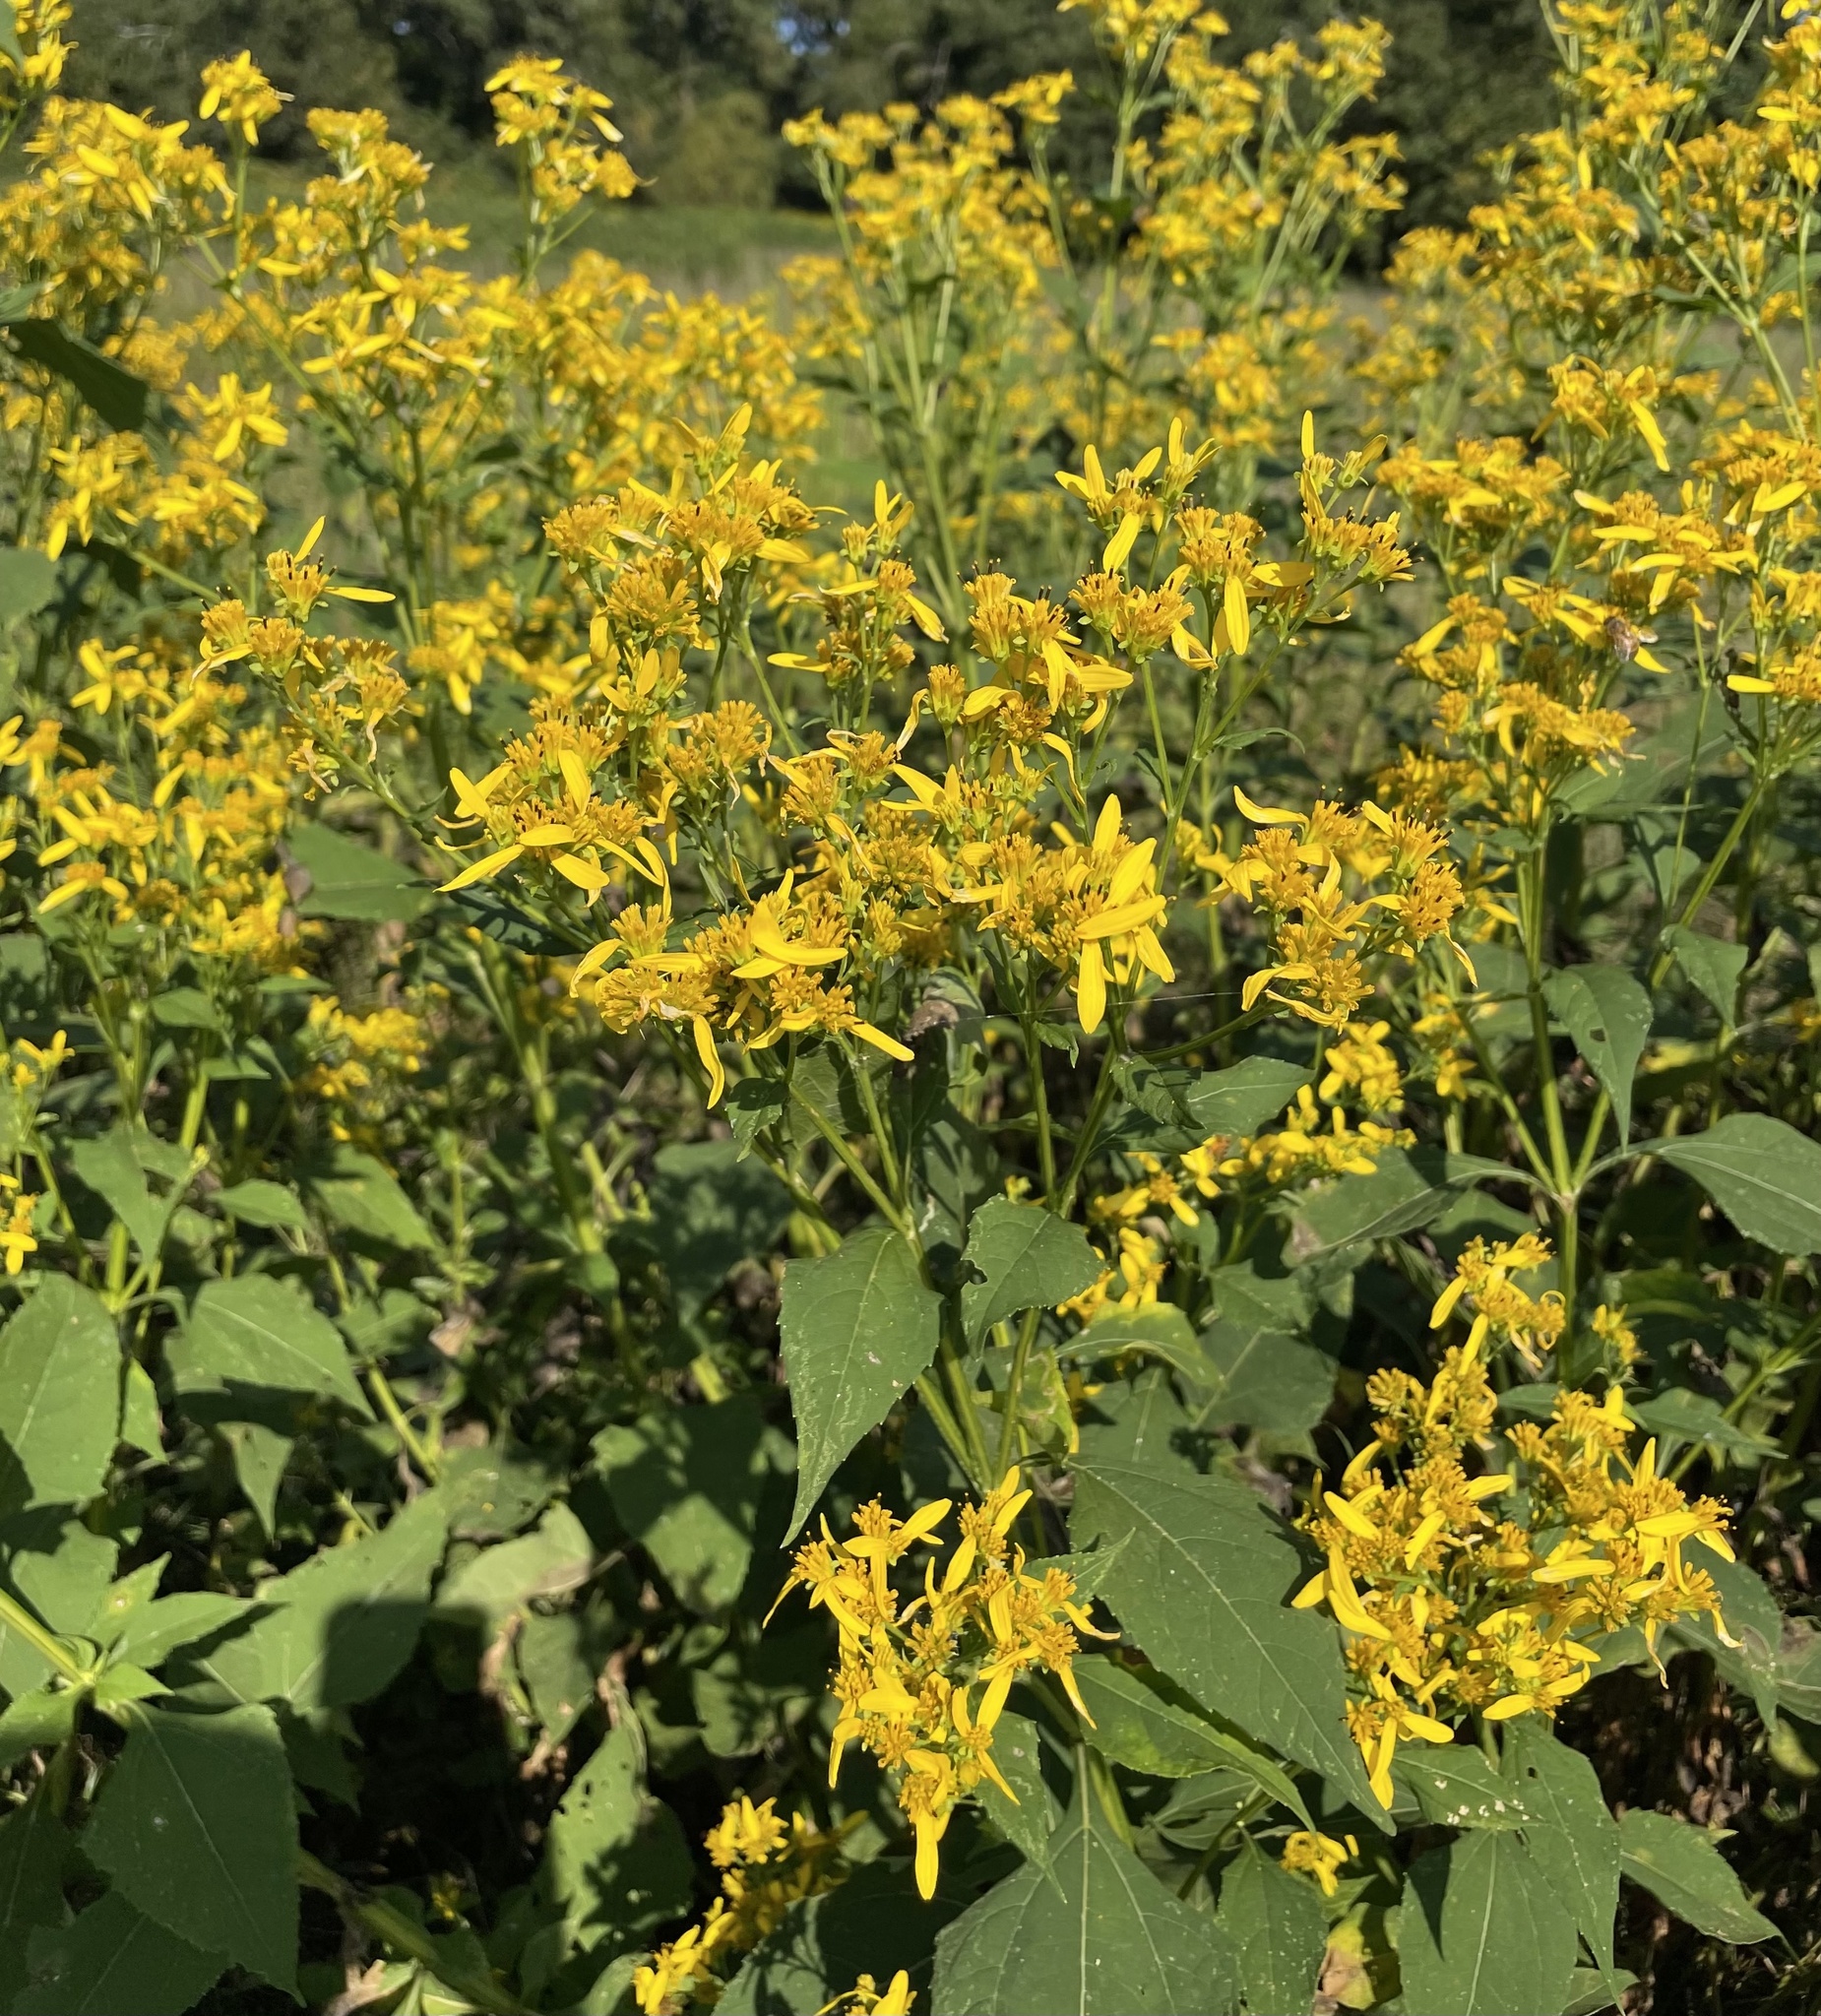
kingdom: Plantae
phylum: Tracheophyta
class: Magnoliopsida
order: Asterales
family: Asteraceae
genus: Verbesina
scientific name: Verbesina occidentalis
